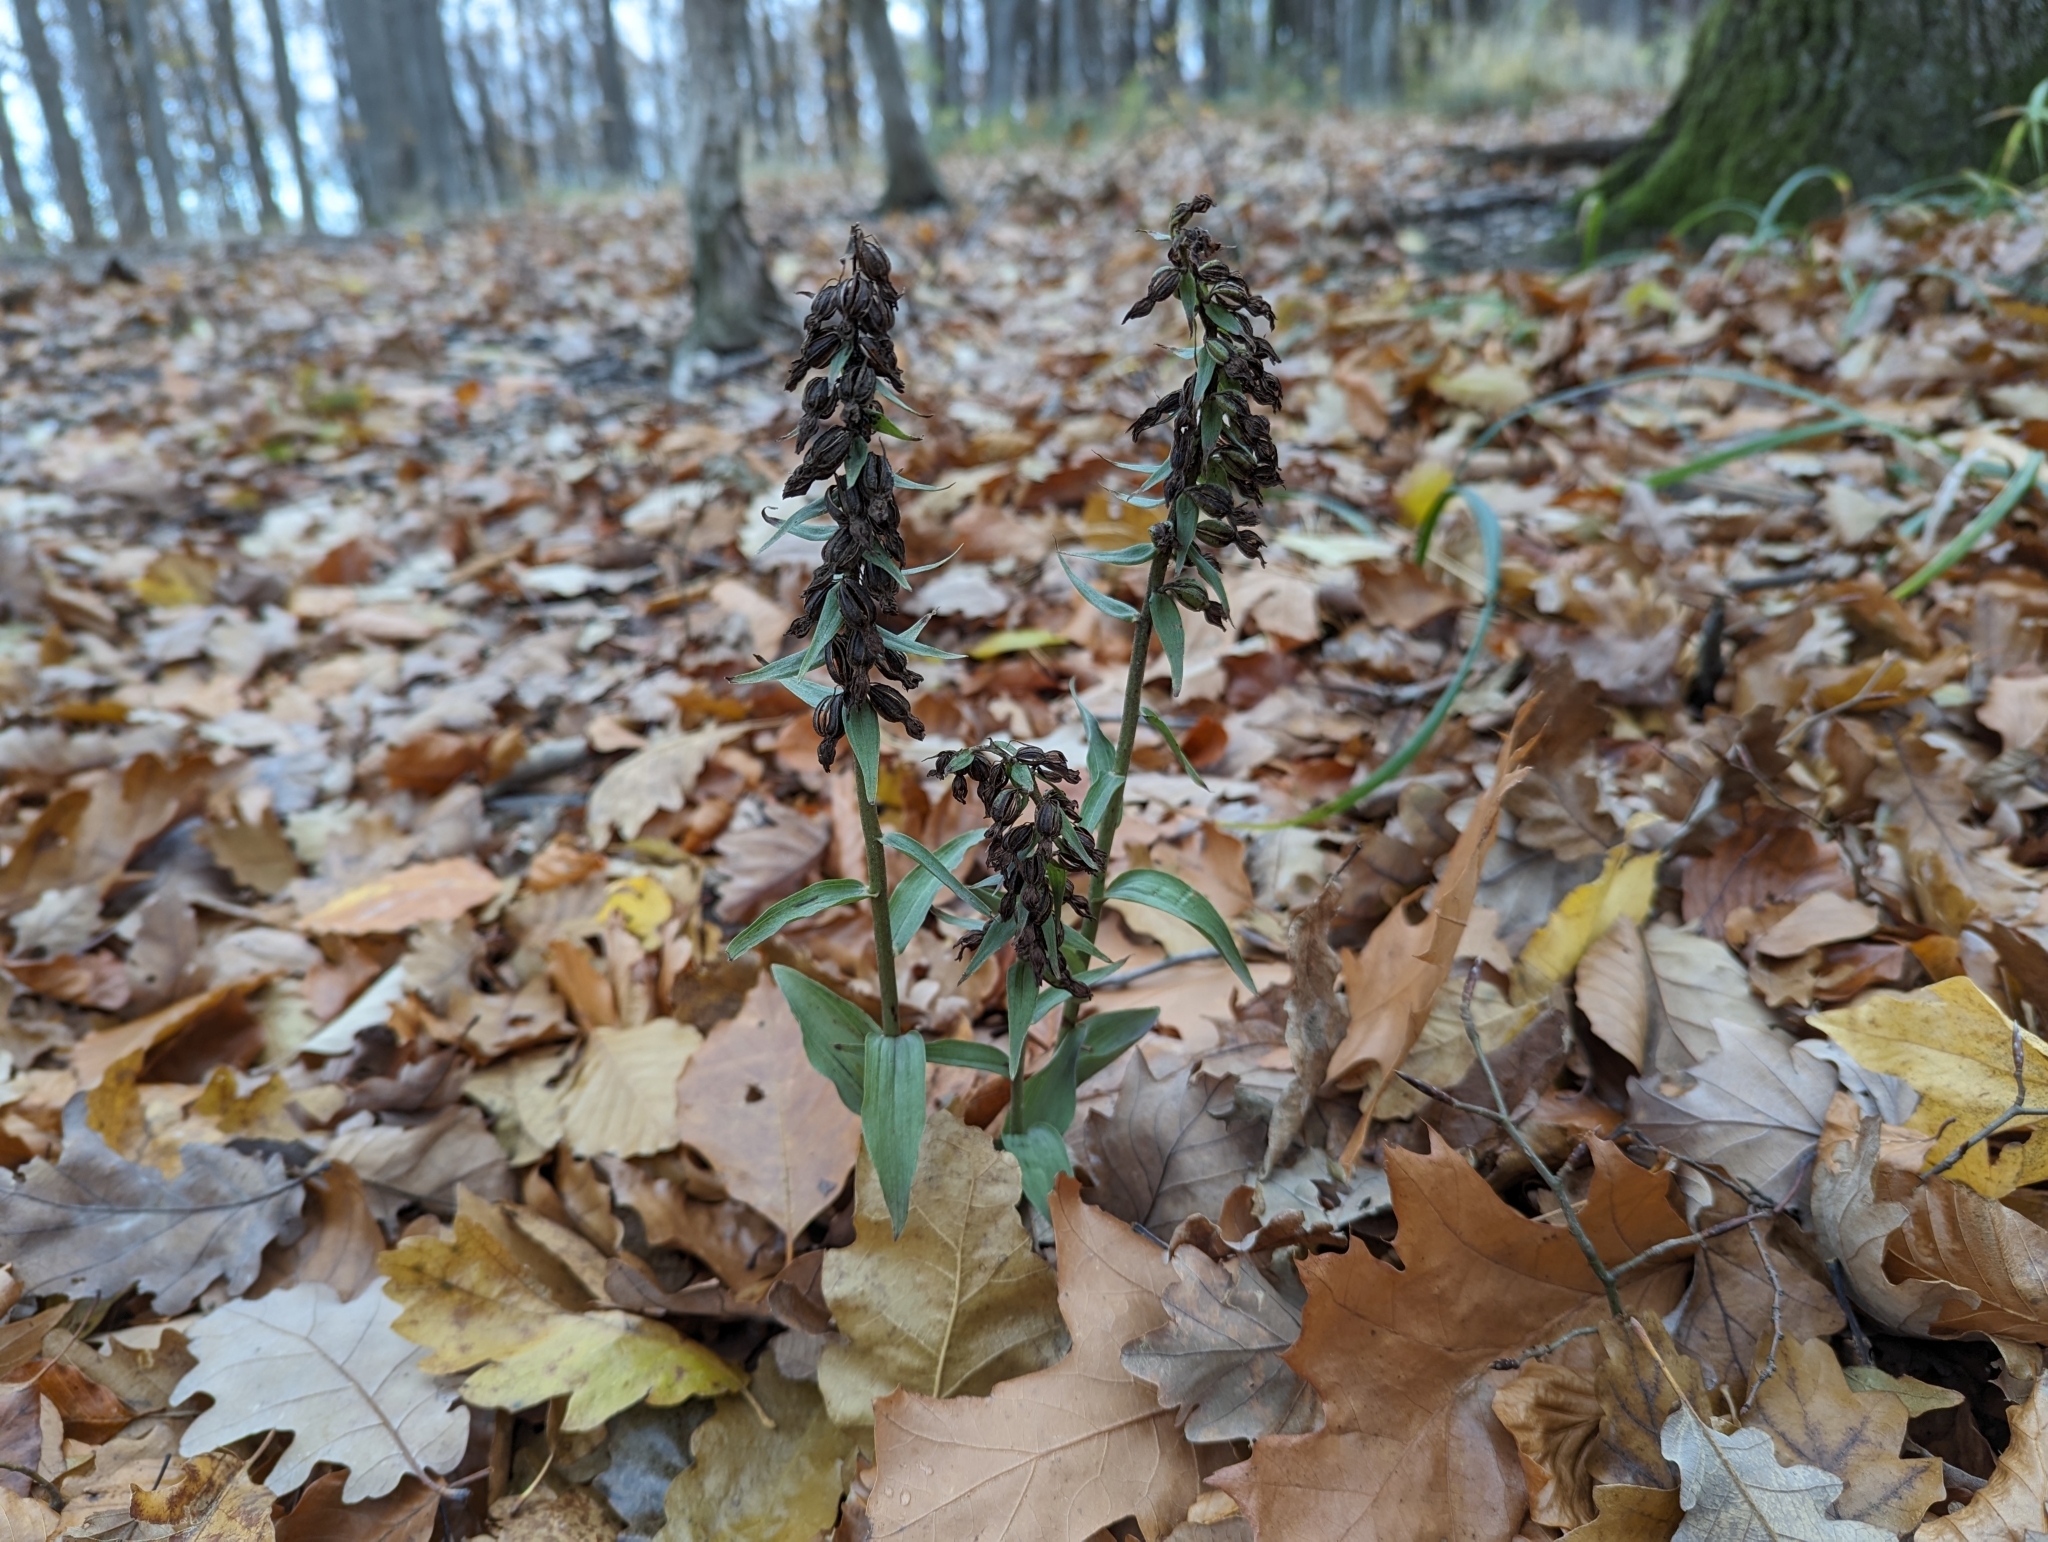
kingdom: Plantae
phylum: Tracheophyta
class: Liliopsida
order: Asparagales
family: Orchidaceae
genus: Epipactis
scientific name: Epipactis purpurata
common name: Violet helleborine
